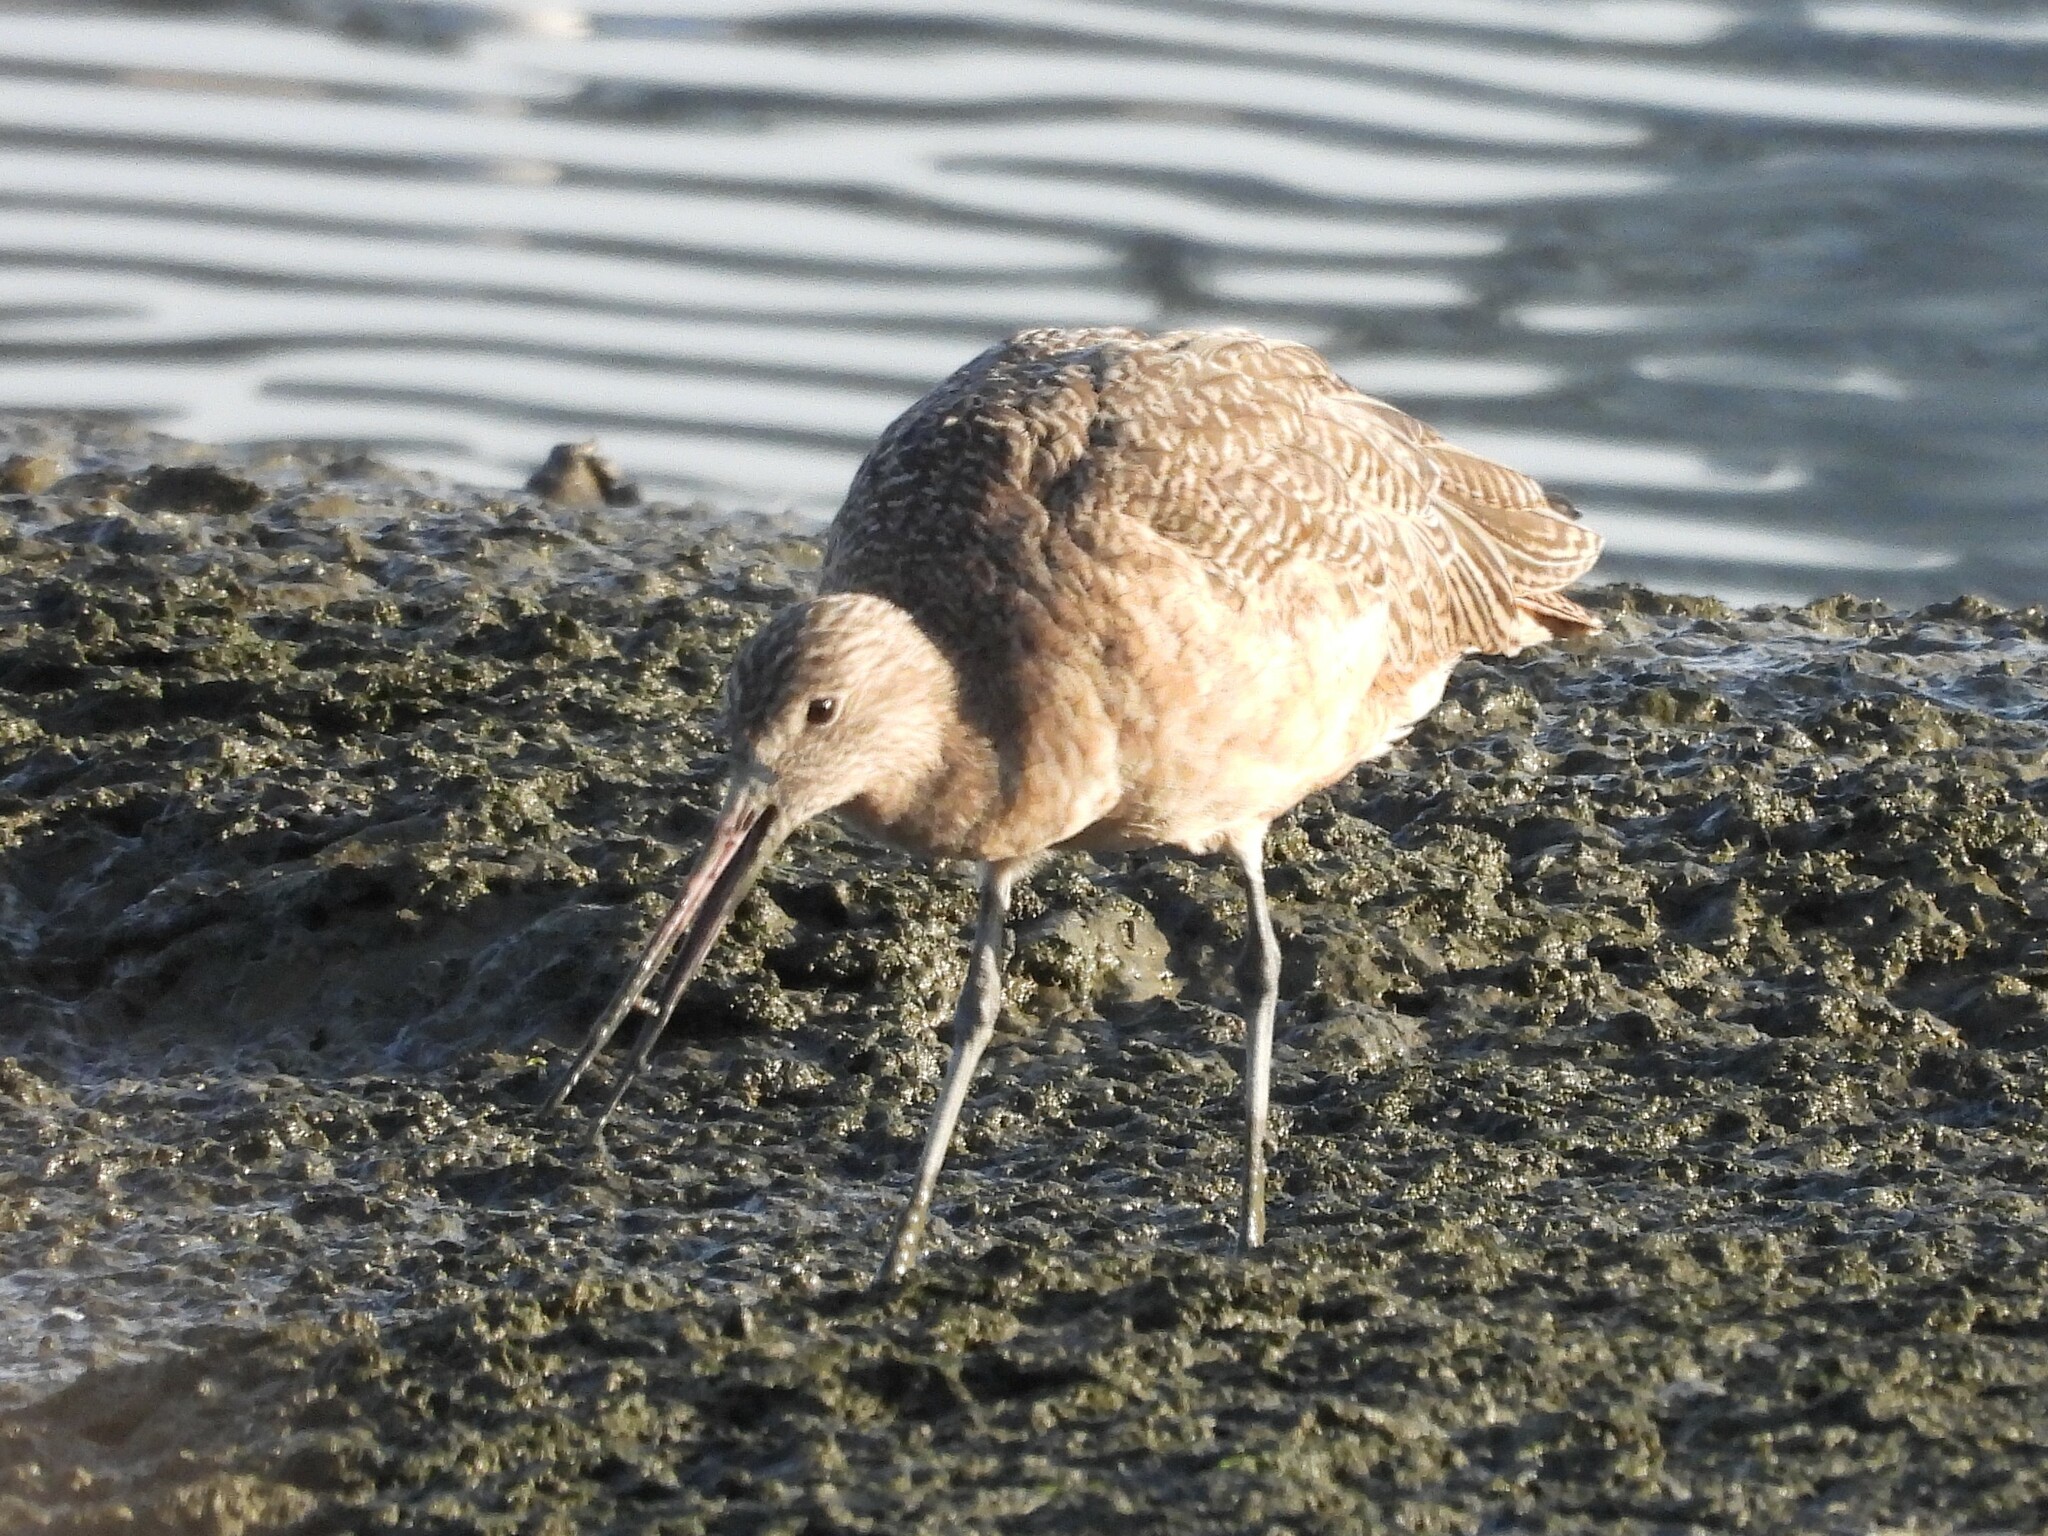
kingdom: Animalia
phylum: Chordata
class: Aves
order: Charadriiformes
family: Scolopacidae
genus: Limosa
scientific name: Limosa fedoa
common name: Marbled godwit
